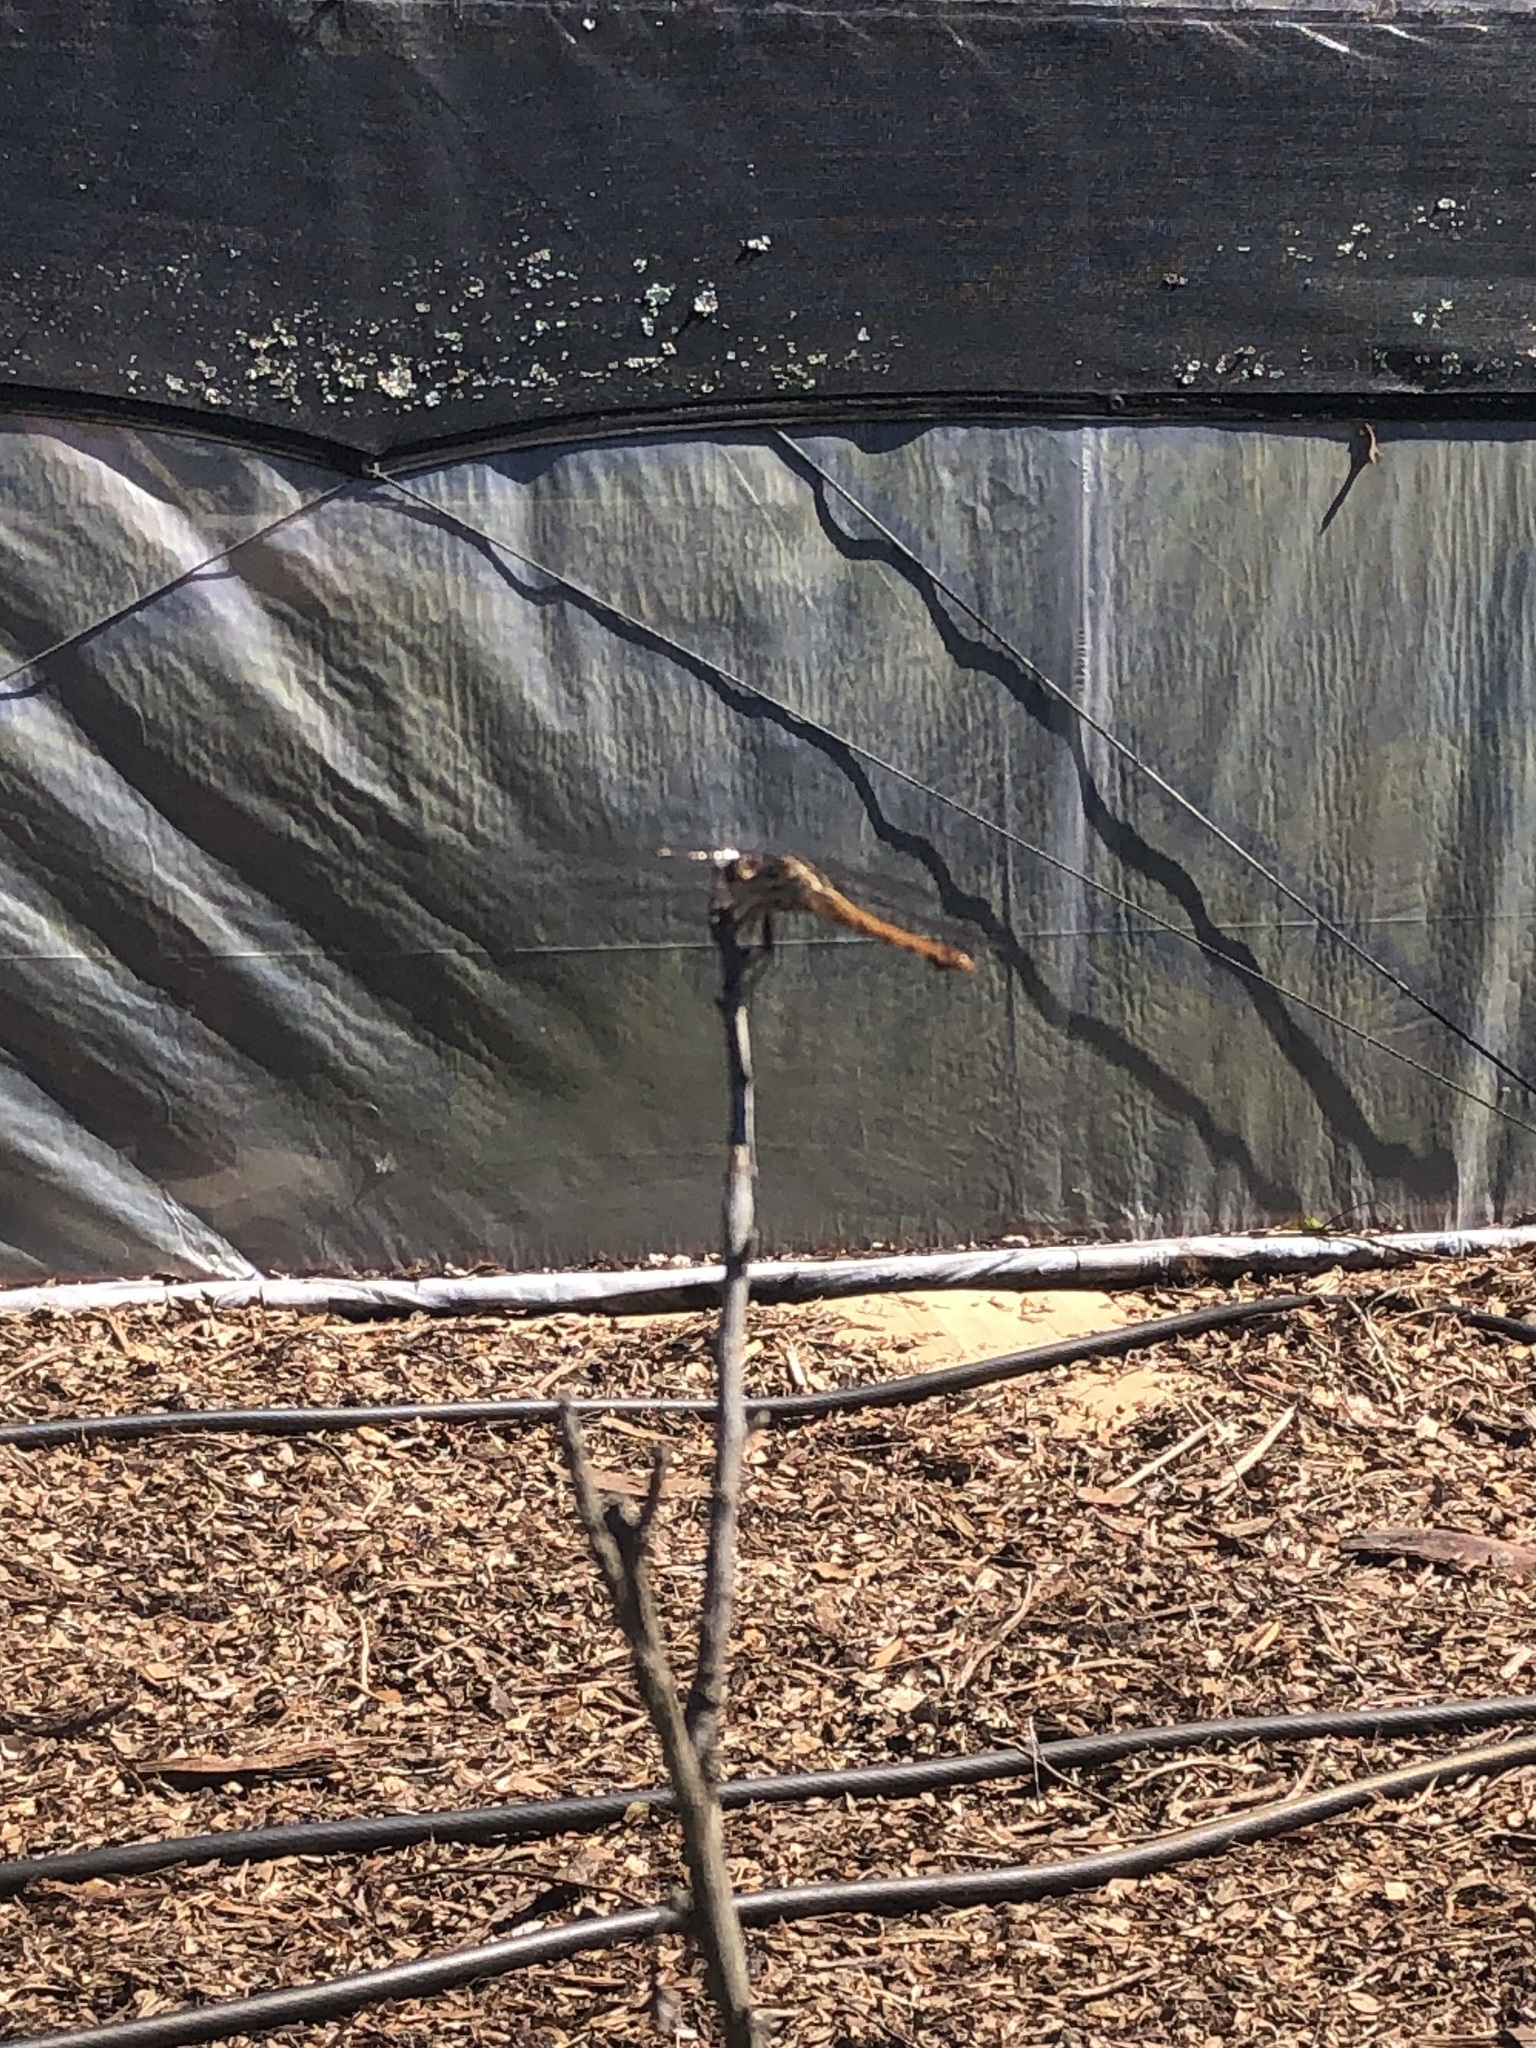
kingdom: Animalia
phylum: Arthropoda
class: Insecta
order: Odonata
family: Libellulidae
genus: Orthemis
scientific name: Orthemis ferruginea
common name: Roseate skimmer
